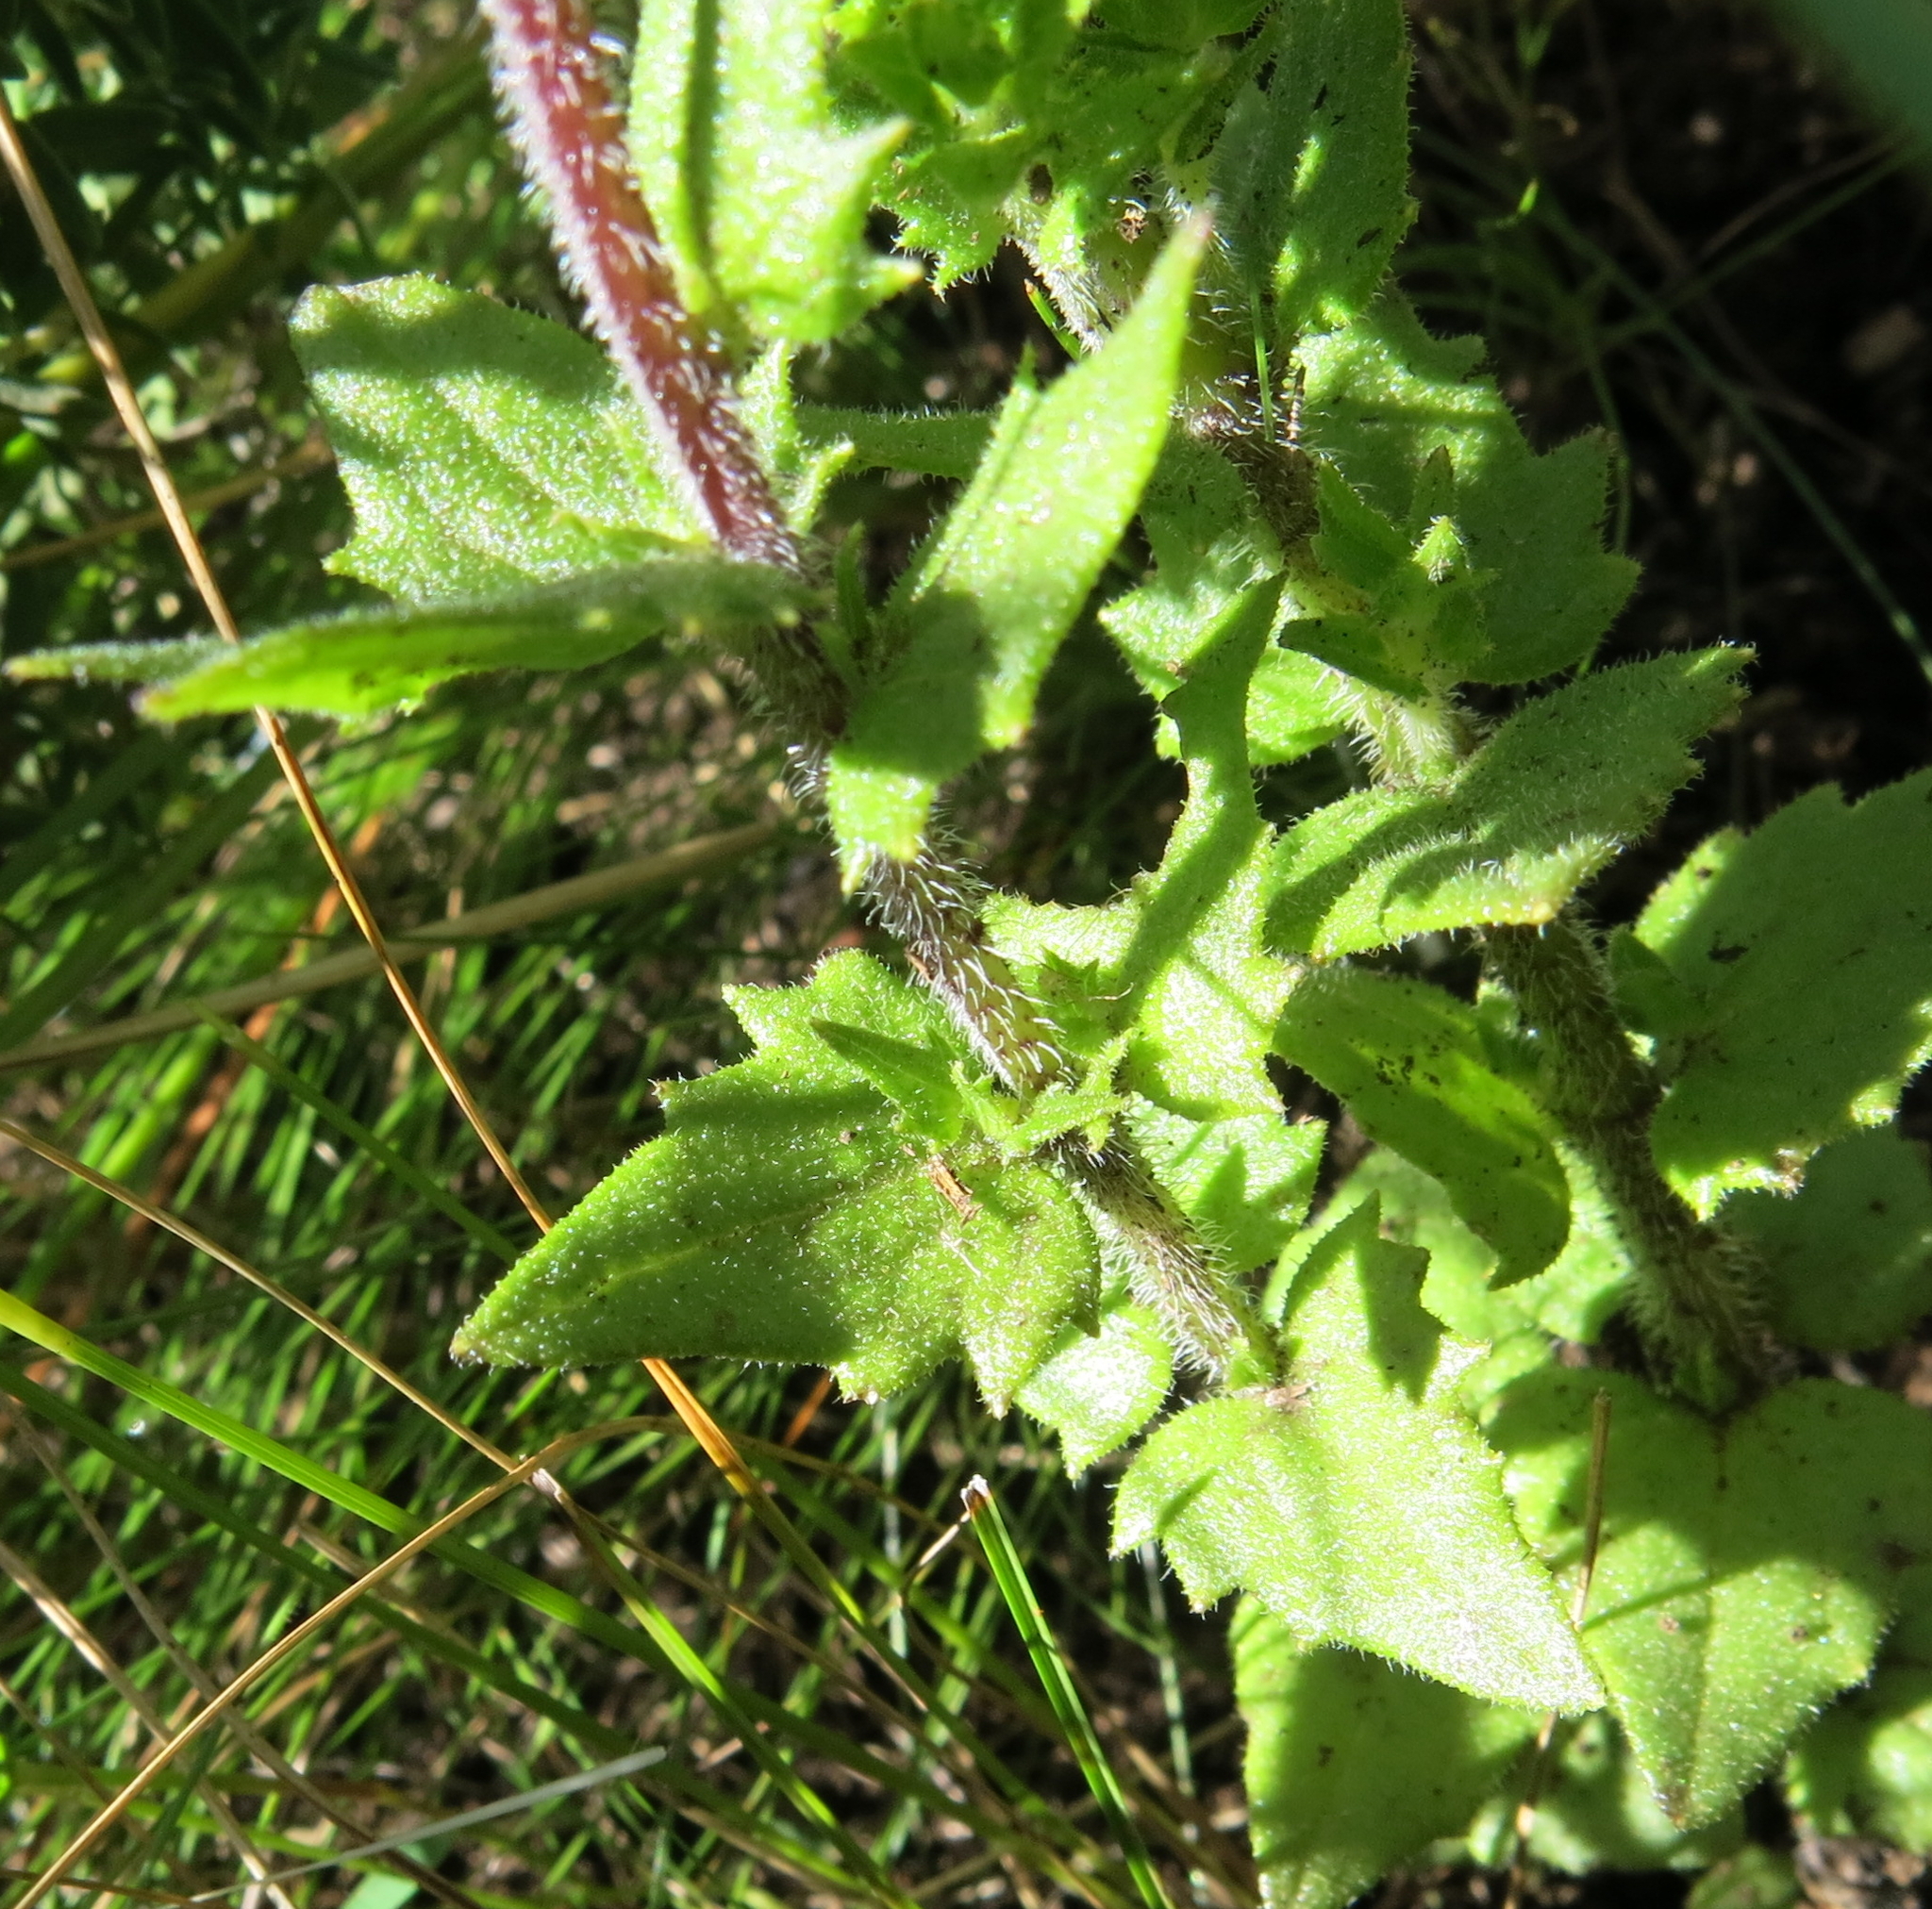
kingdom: Plantae
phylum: Tracheophyta
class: Magnoliopsida
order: Lamiales
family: Orobanchaceae
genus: Alectra
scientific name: Alectra sessiliflora
